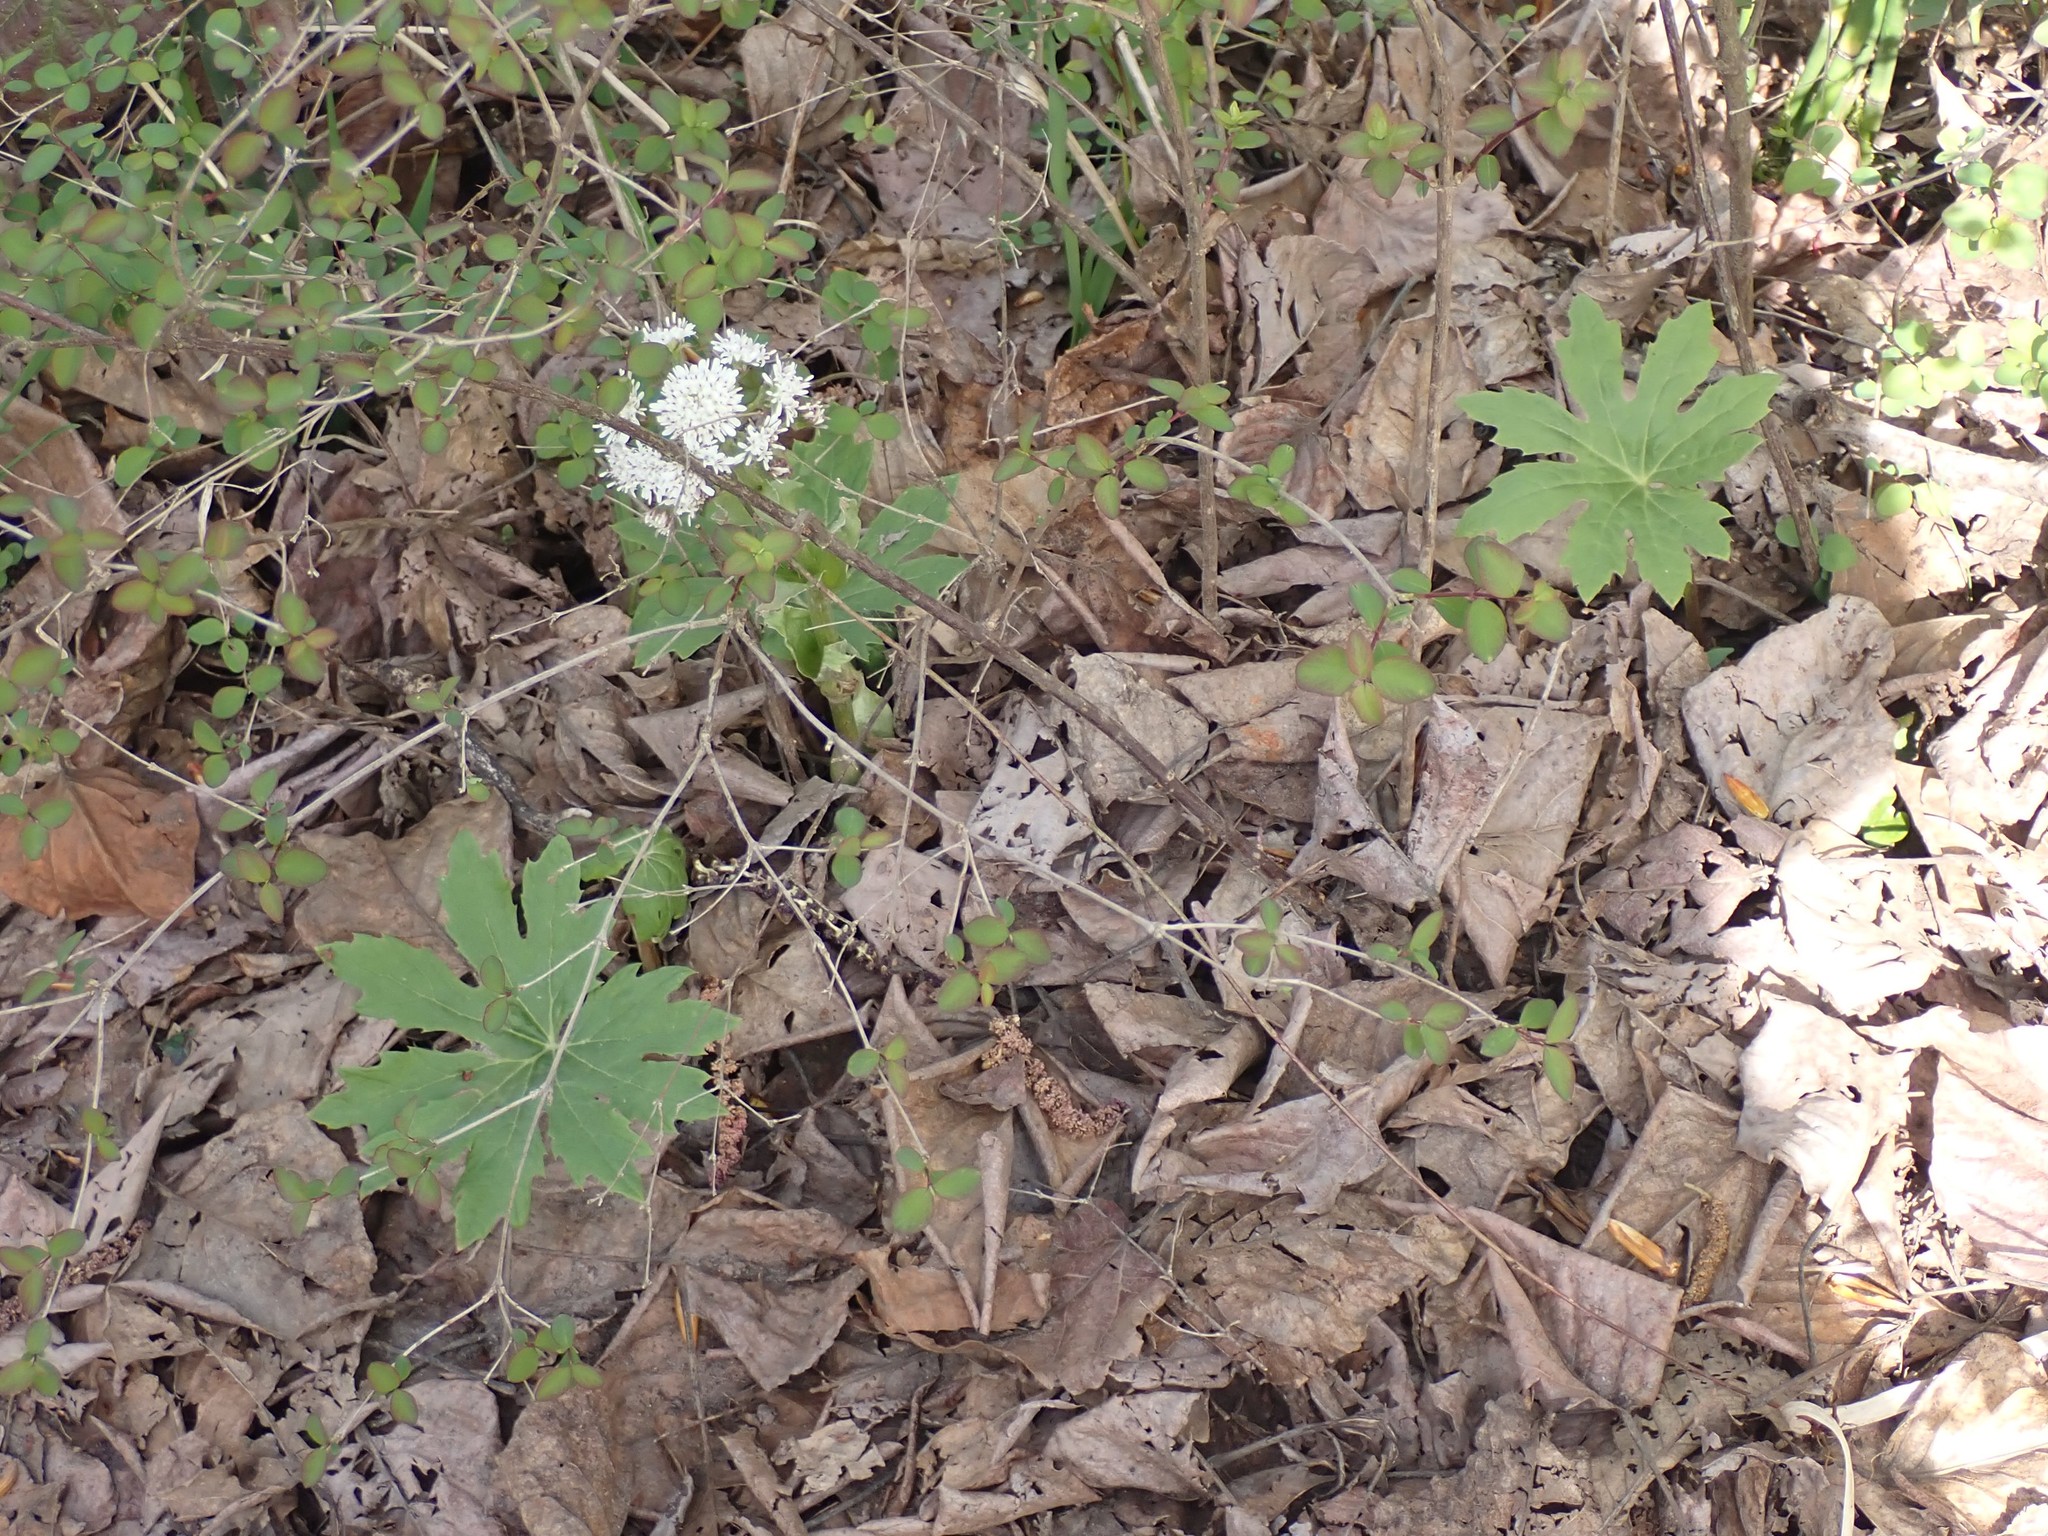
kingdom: Plantae
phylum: Tracheophyta
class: Magnoliopsida
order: Asterales
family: Asteraceae
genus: Petasites
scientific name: Petasites frigidus
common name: Arctic butterbur
